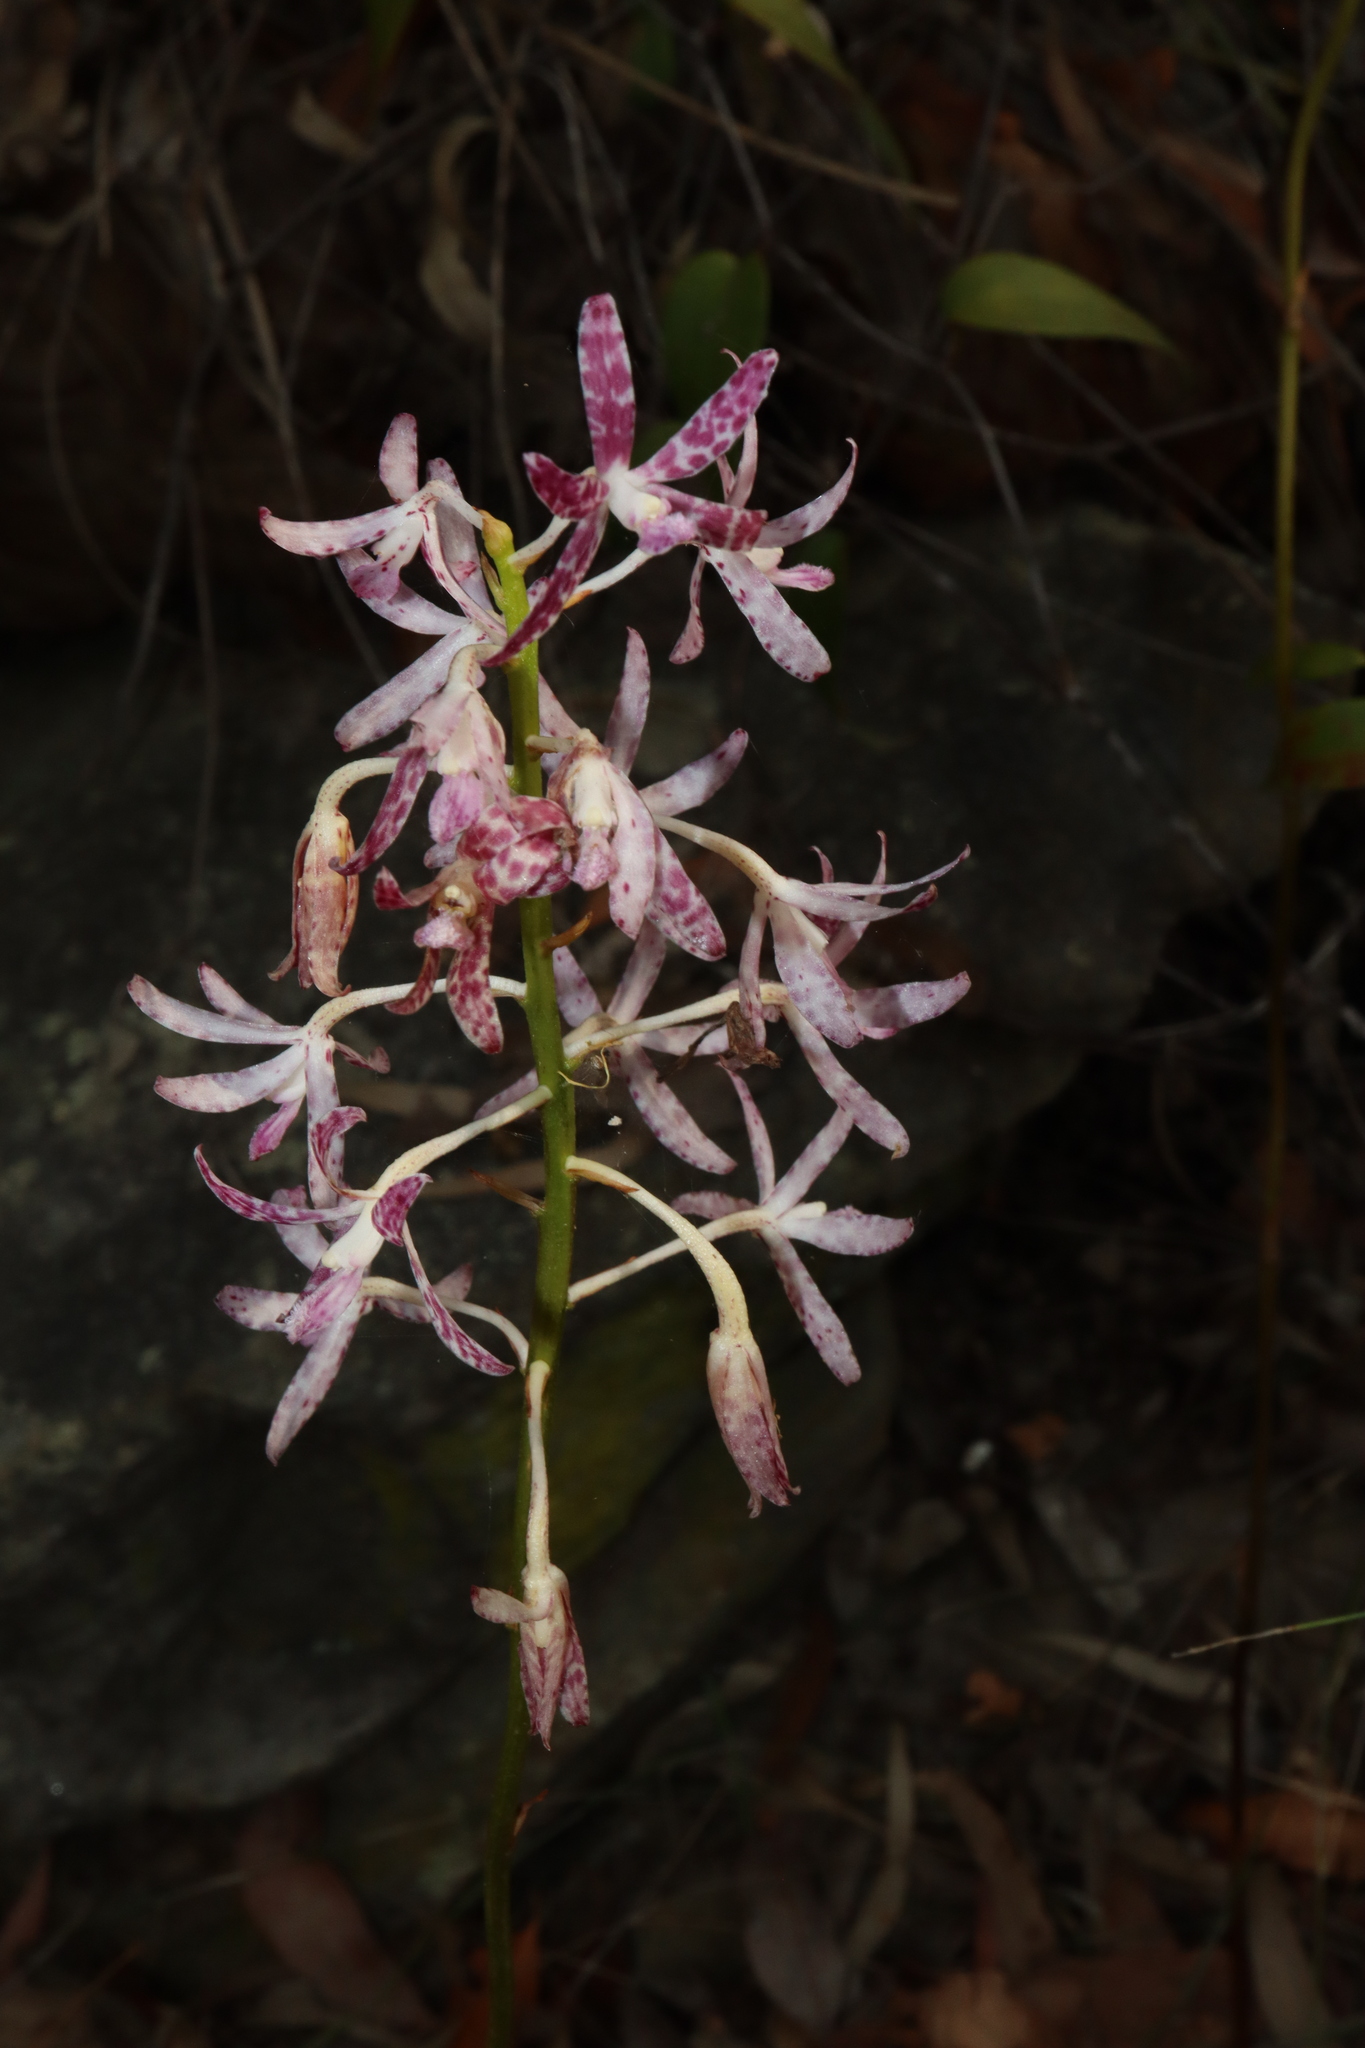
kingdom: Plantae
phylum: Tracheophyta
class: Liliopsida
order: Asparagales
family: Orchidaceae
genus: Dipodium
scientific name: Dipodium variegatum
